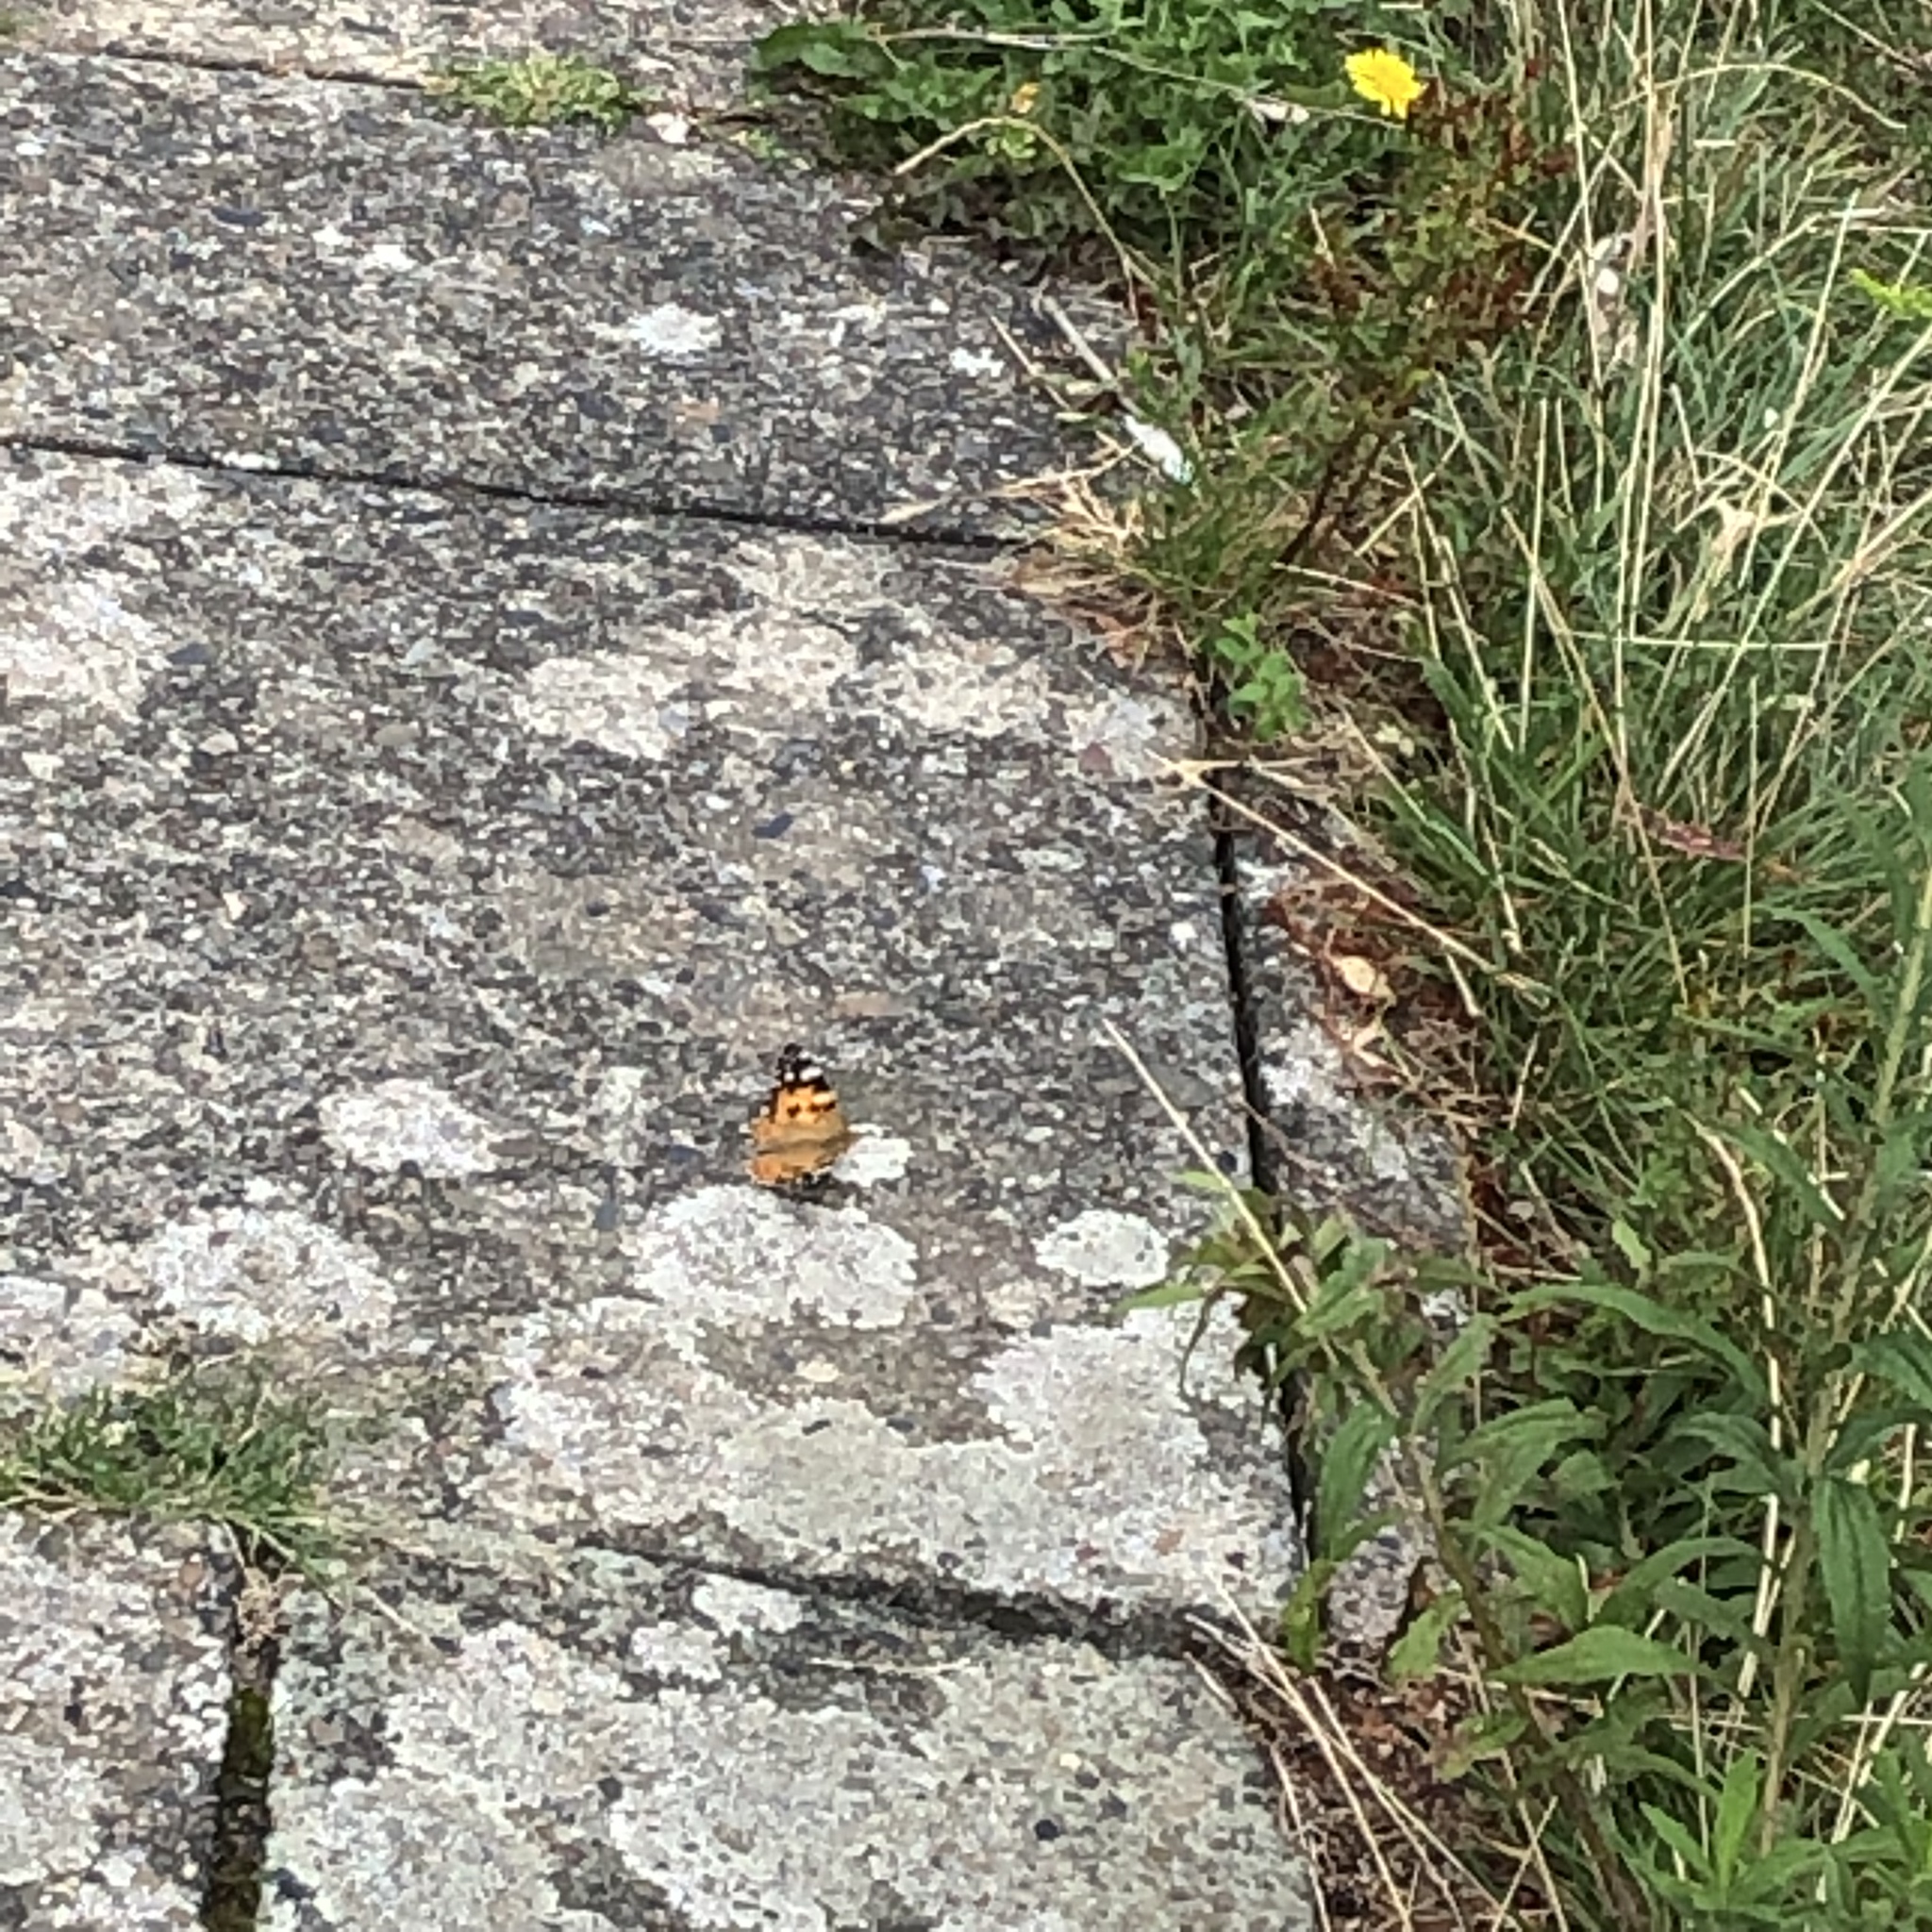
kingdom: Animalia
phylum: Arthropoda
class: Insecta
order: Lepidoptera
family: Nymphalidae
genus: Vanessa
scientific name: Vanessa cardui
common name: Painted lady
